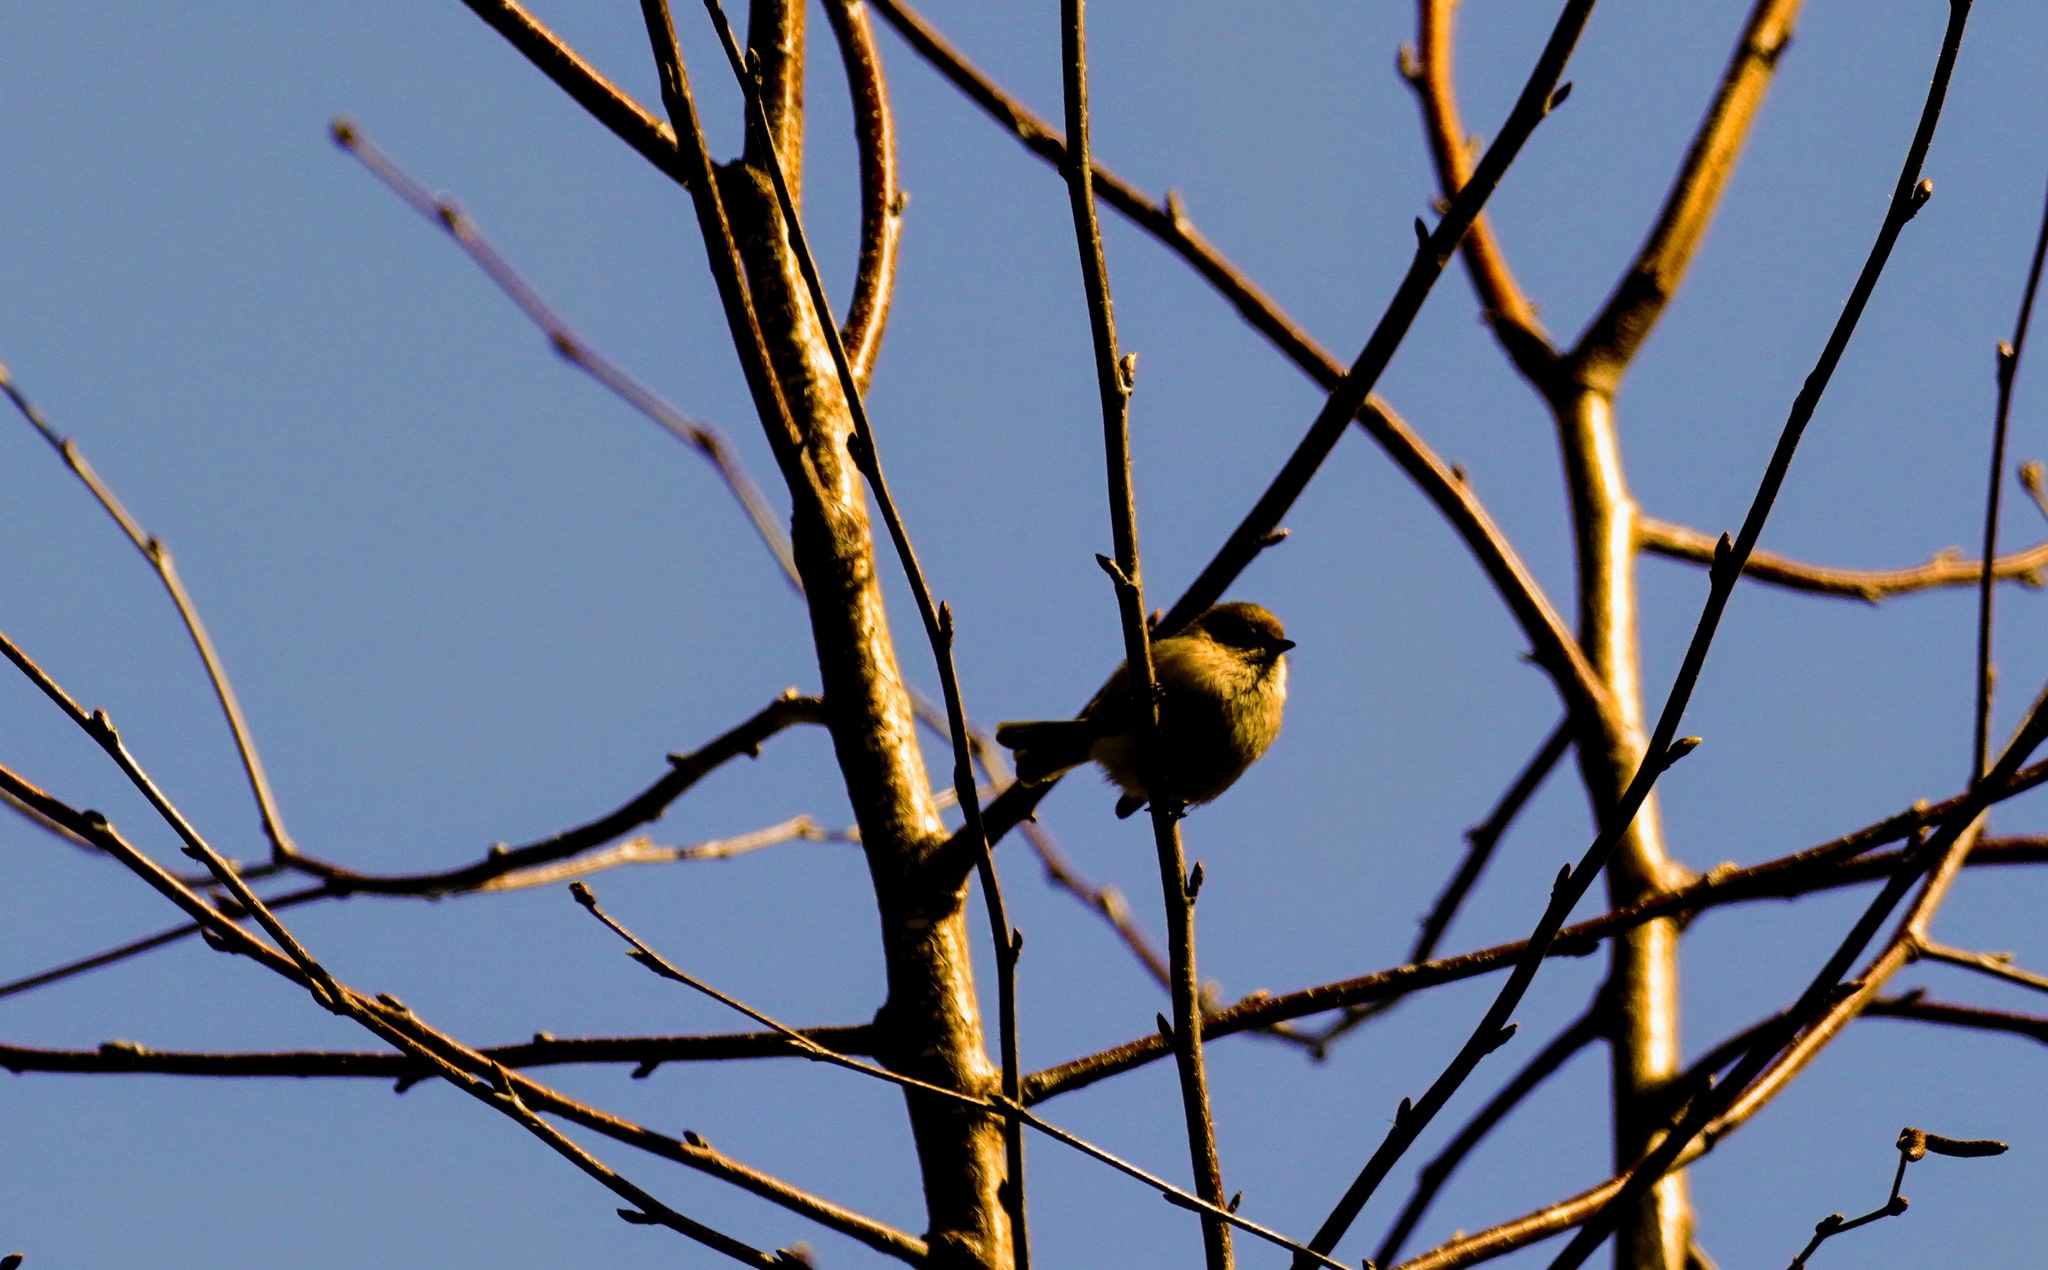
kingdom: Animalia
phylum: Chordata
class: Aves
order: Passeriformes
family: Aegithalidae
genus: Psaltriparus
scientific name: Psaltriparus minimus
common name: American bushtit
